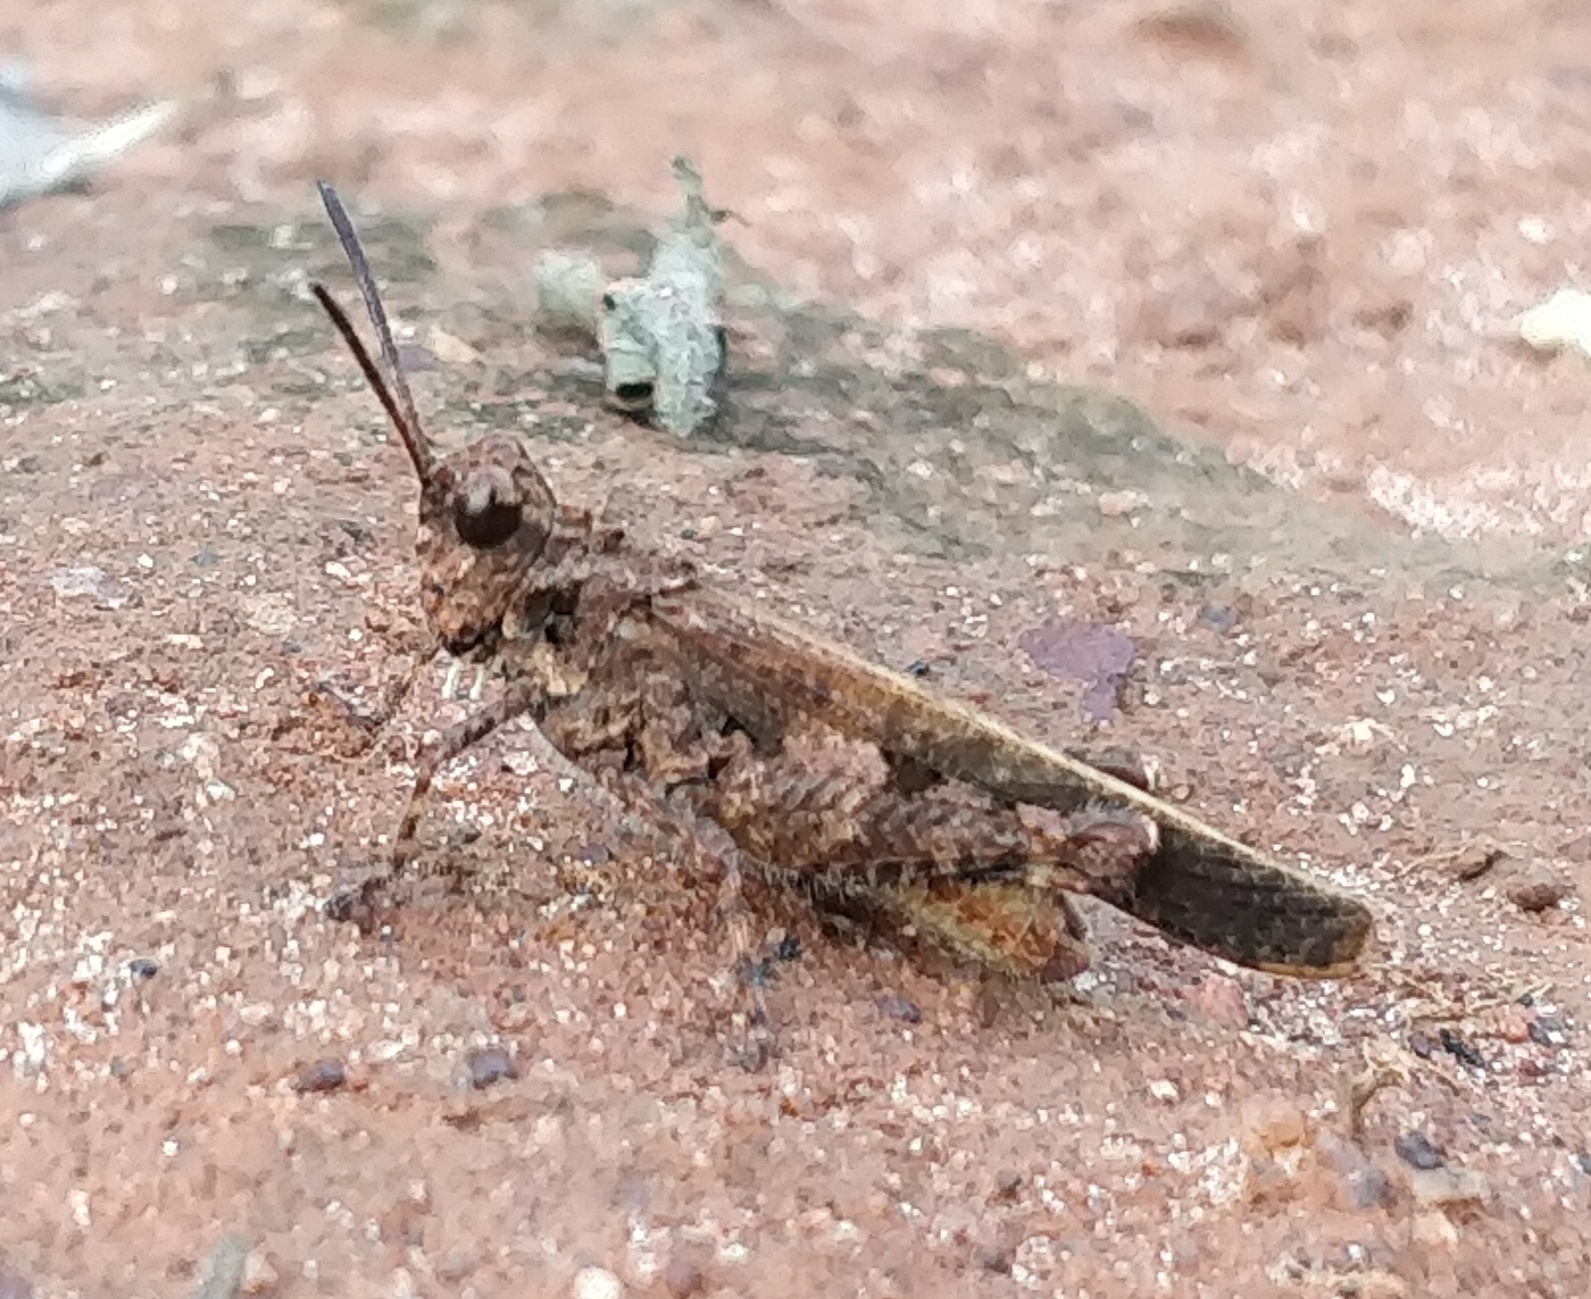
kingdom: Animalia
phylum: Arthropoda
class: Insecta
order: Orthoptera
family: Acrididae
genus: Trilophidia
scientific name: Trilophidia annulata
